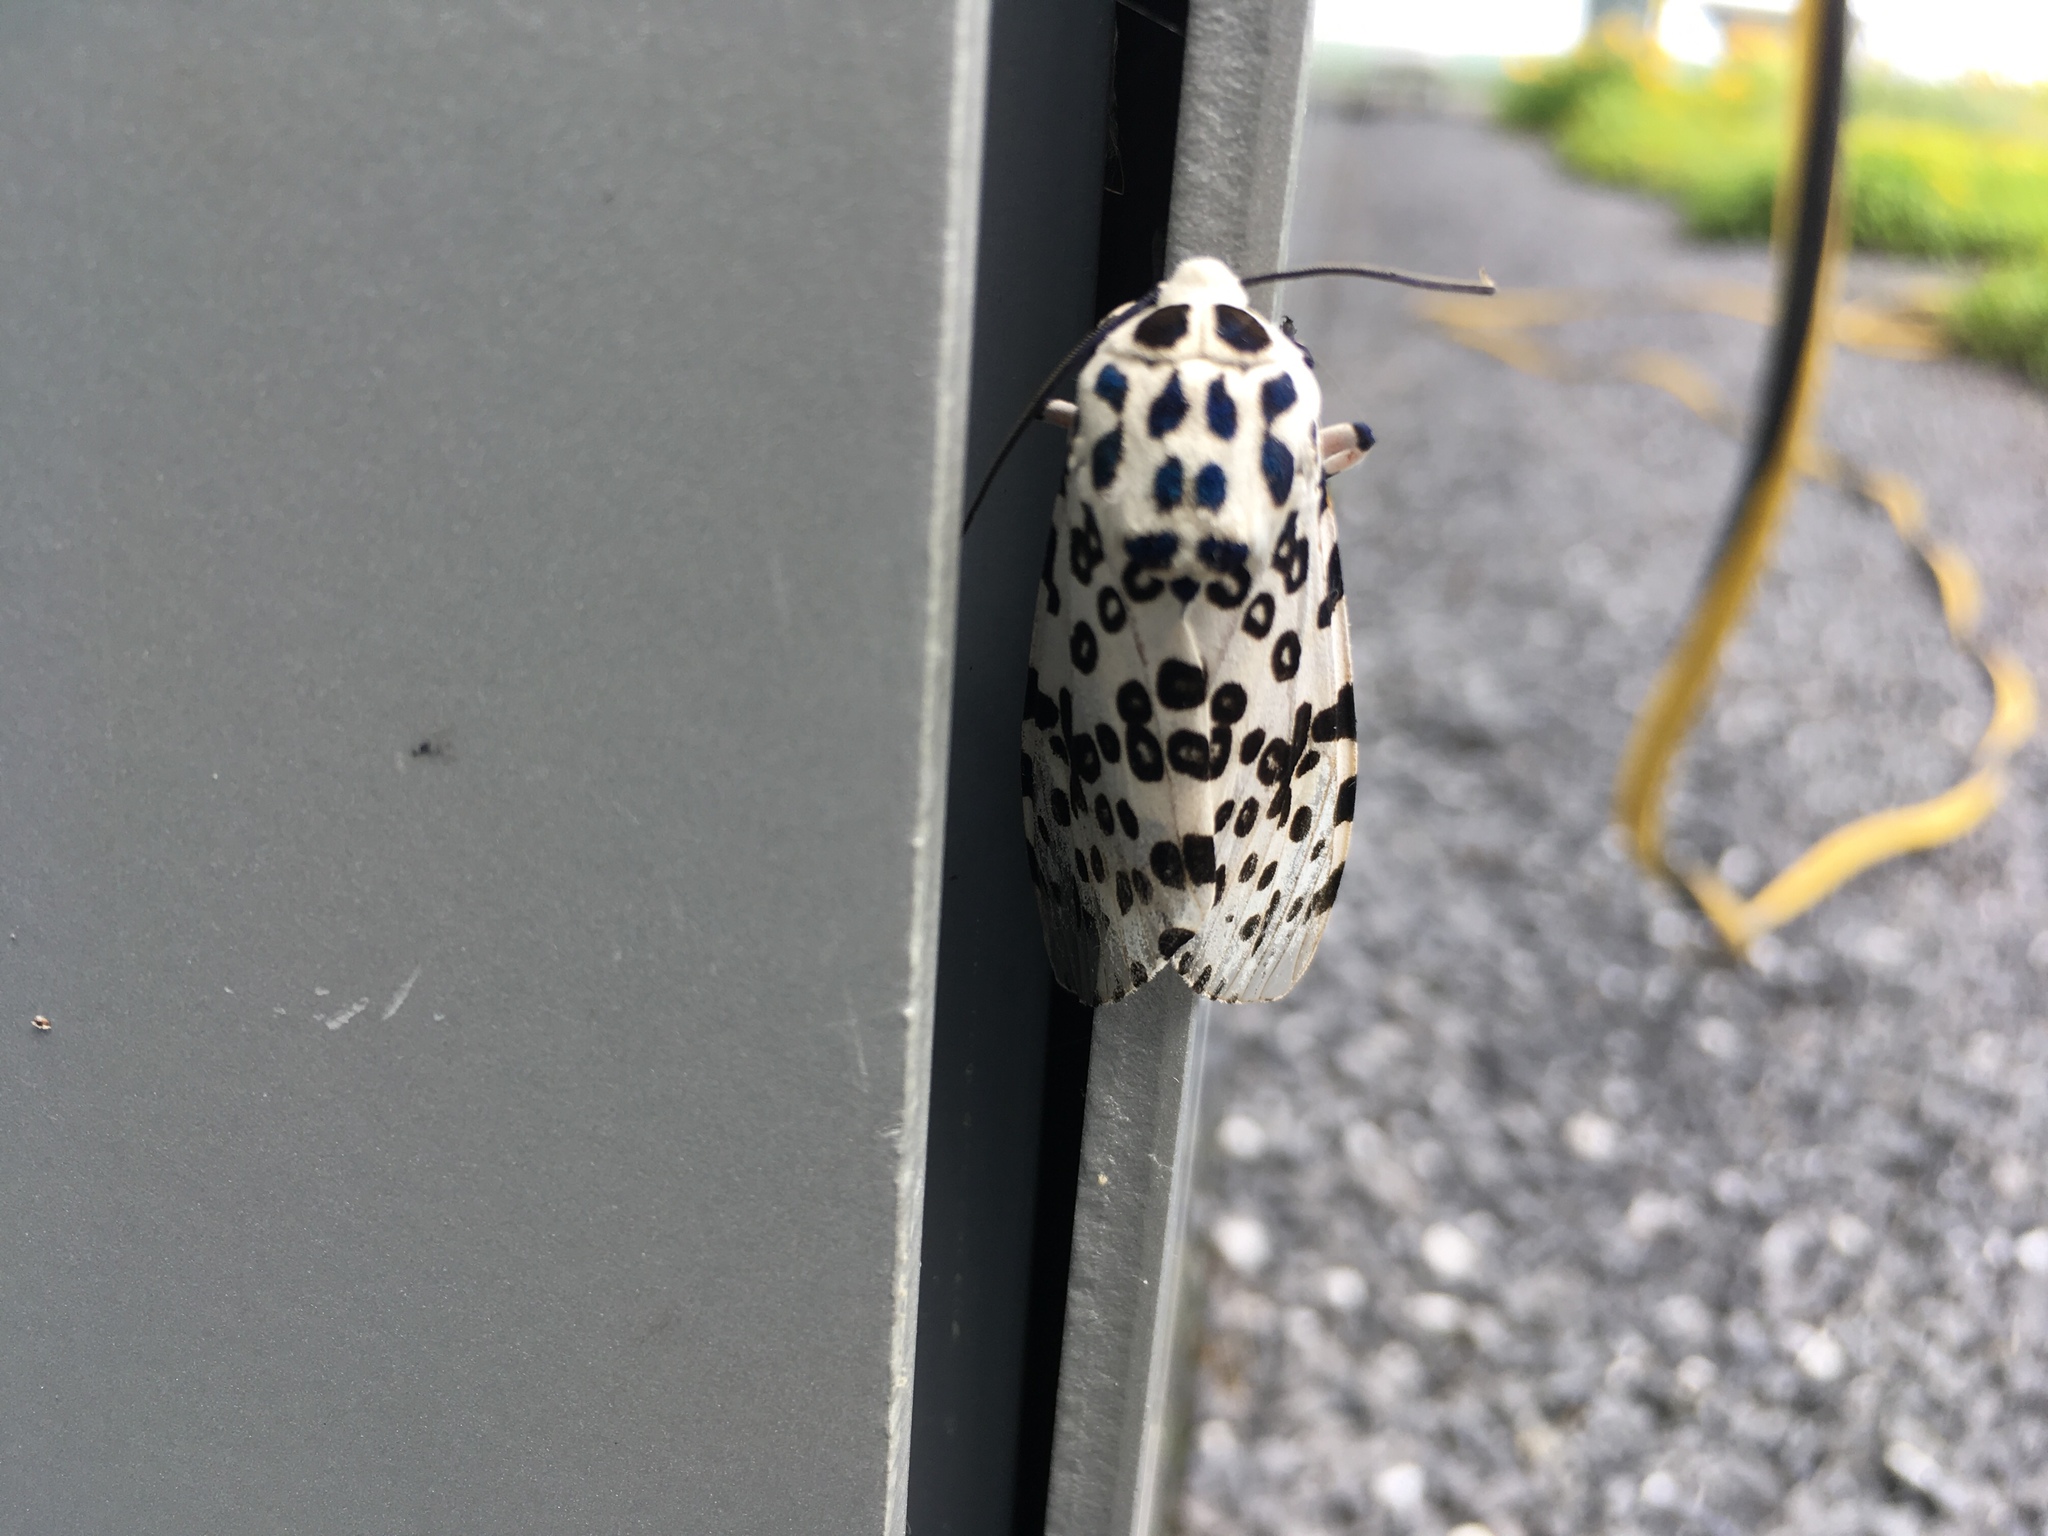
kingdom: Animalia
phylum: Arthropoda
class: Insecta
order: Lepidoptera
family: Erebidae
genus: Hypercompe
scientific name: Hypercompe scribonia
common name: Giant leopard moth
